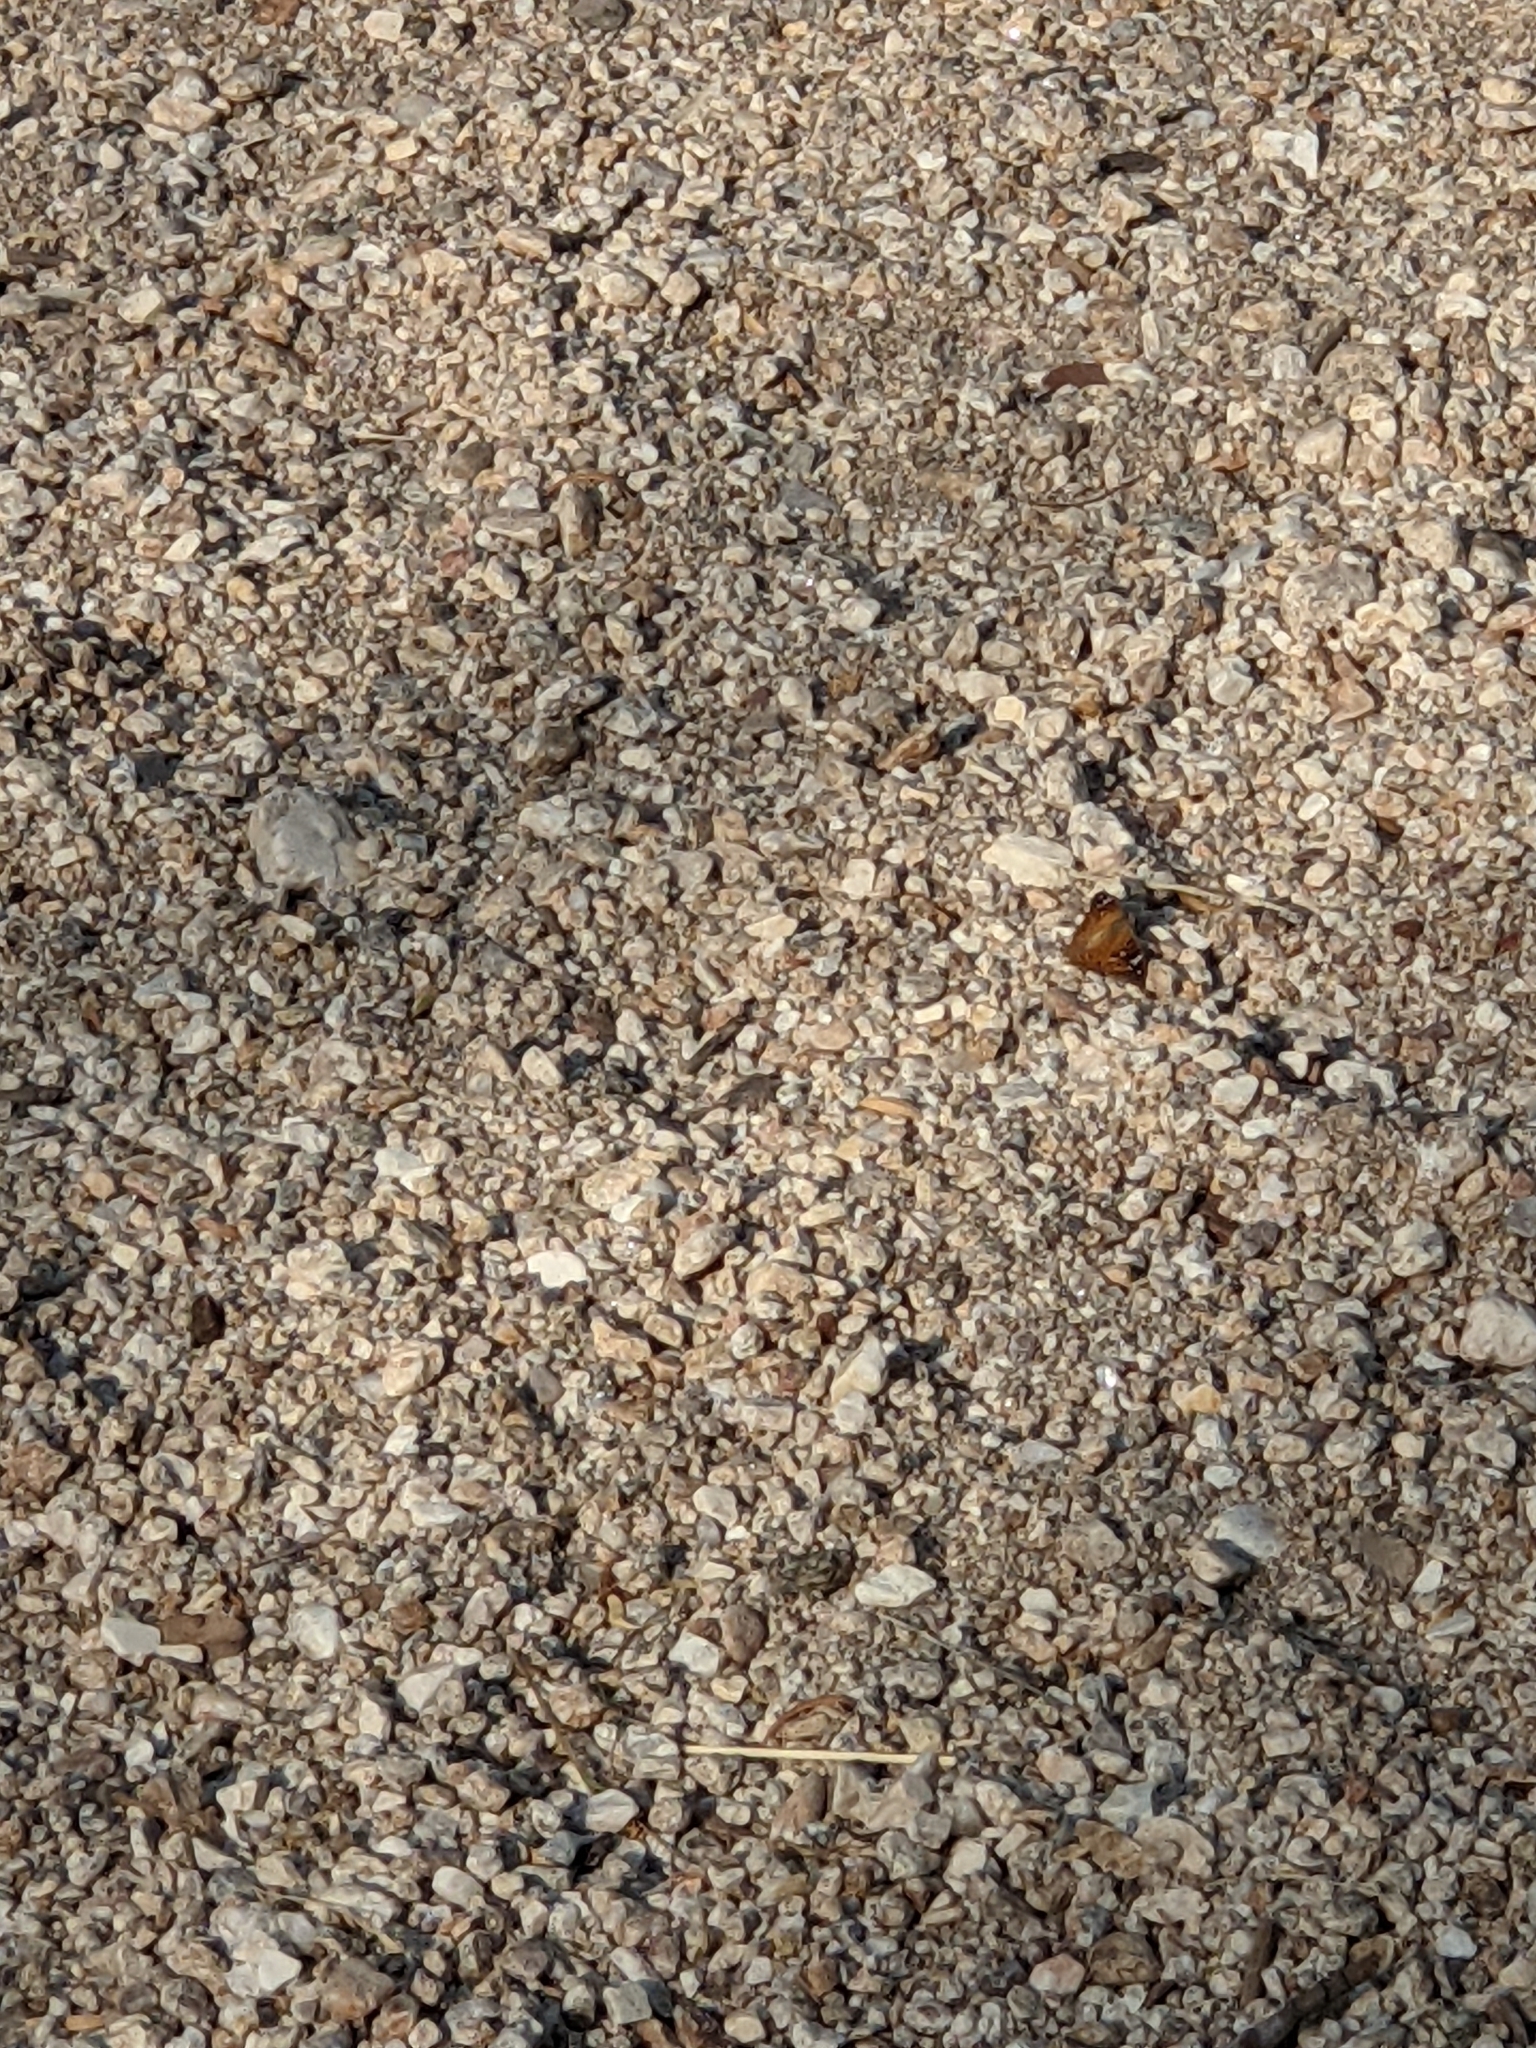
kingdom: Animalia
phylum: Arthropoda
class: Insecta
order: Lepidoptera
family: Nymphalidae
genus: Asterocampa
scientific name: Asterocampa leilia
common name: Empress leilia
